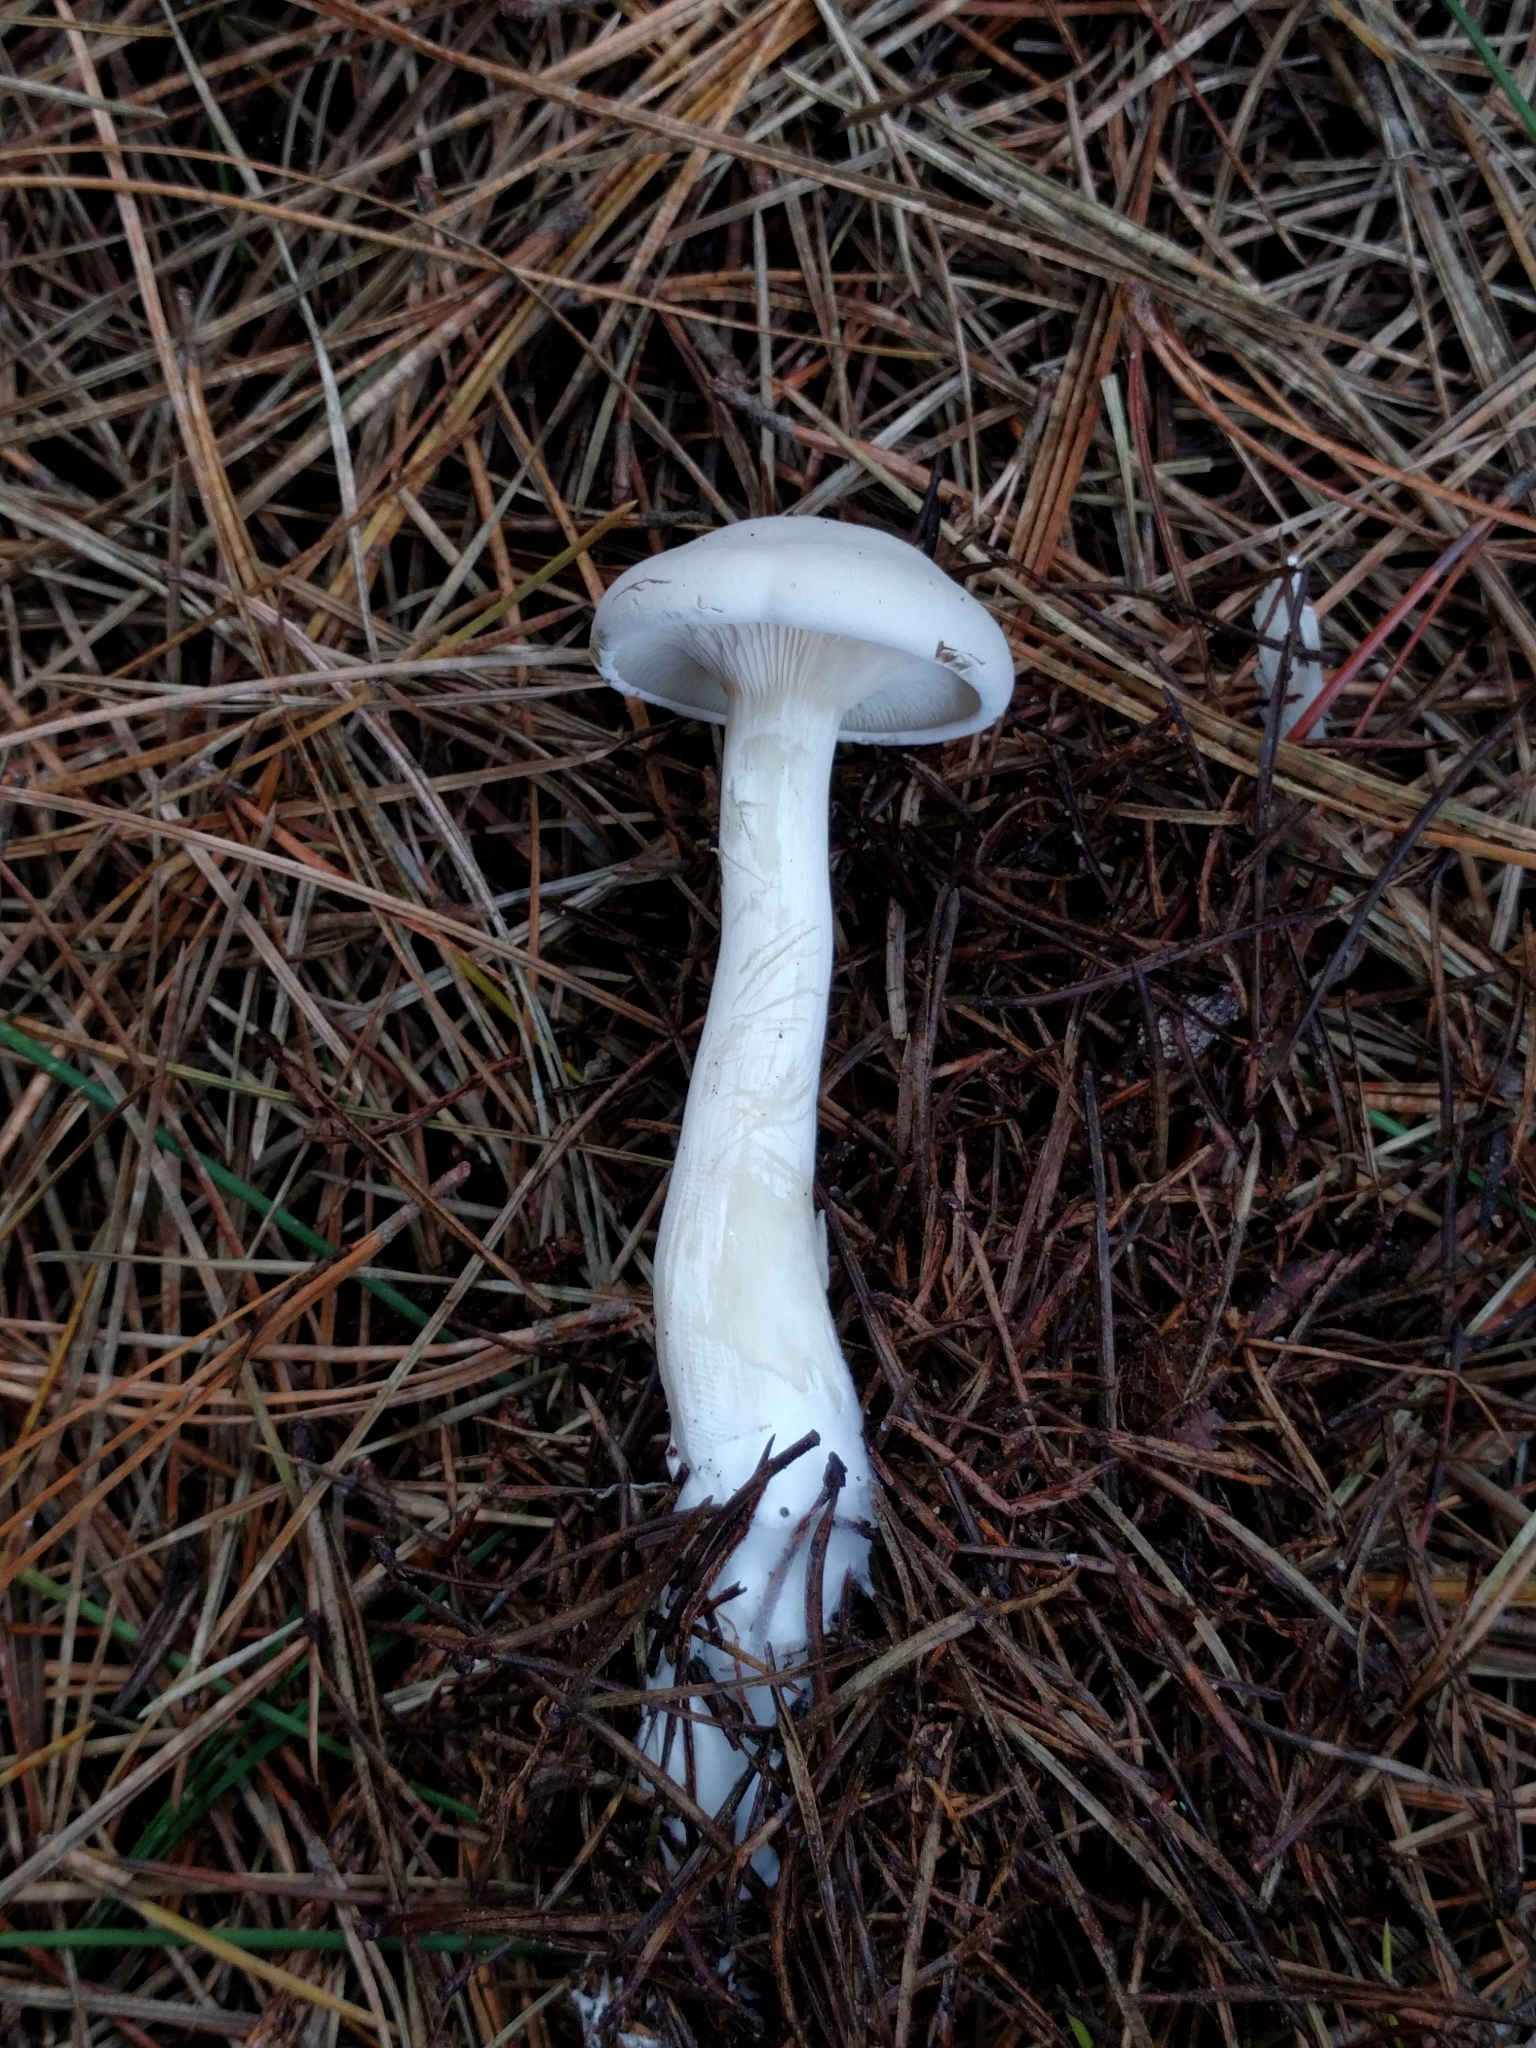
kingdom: Fungi
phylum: Basidiomycota
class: Agaricomycetes
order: Agaricales
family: Entolomataceae
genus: Clitopilus
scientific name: Clitopilus prunulus
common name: The miller
